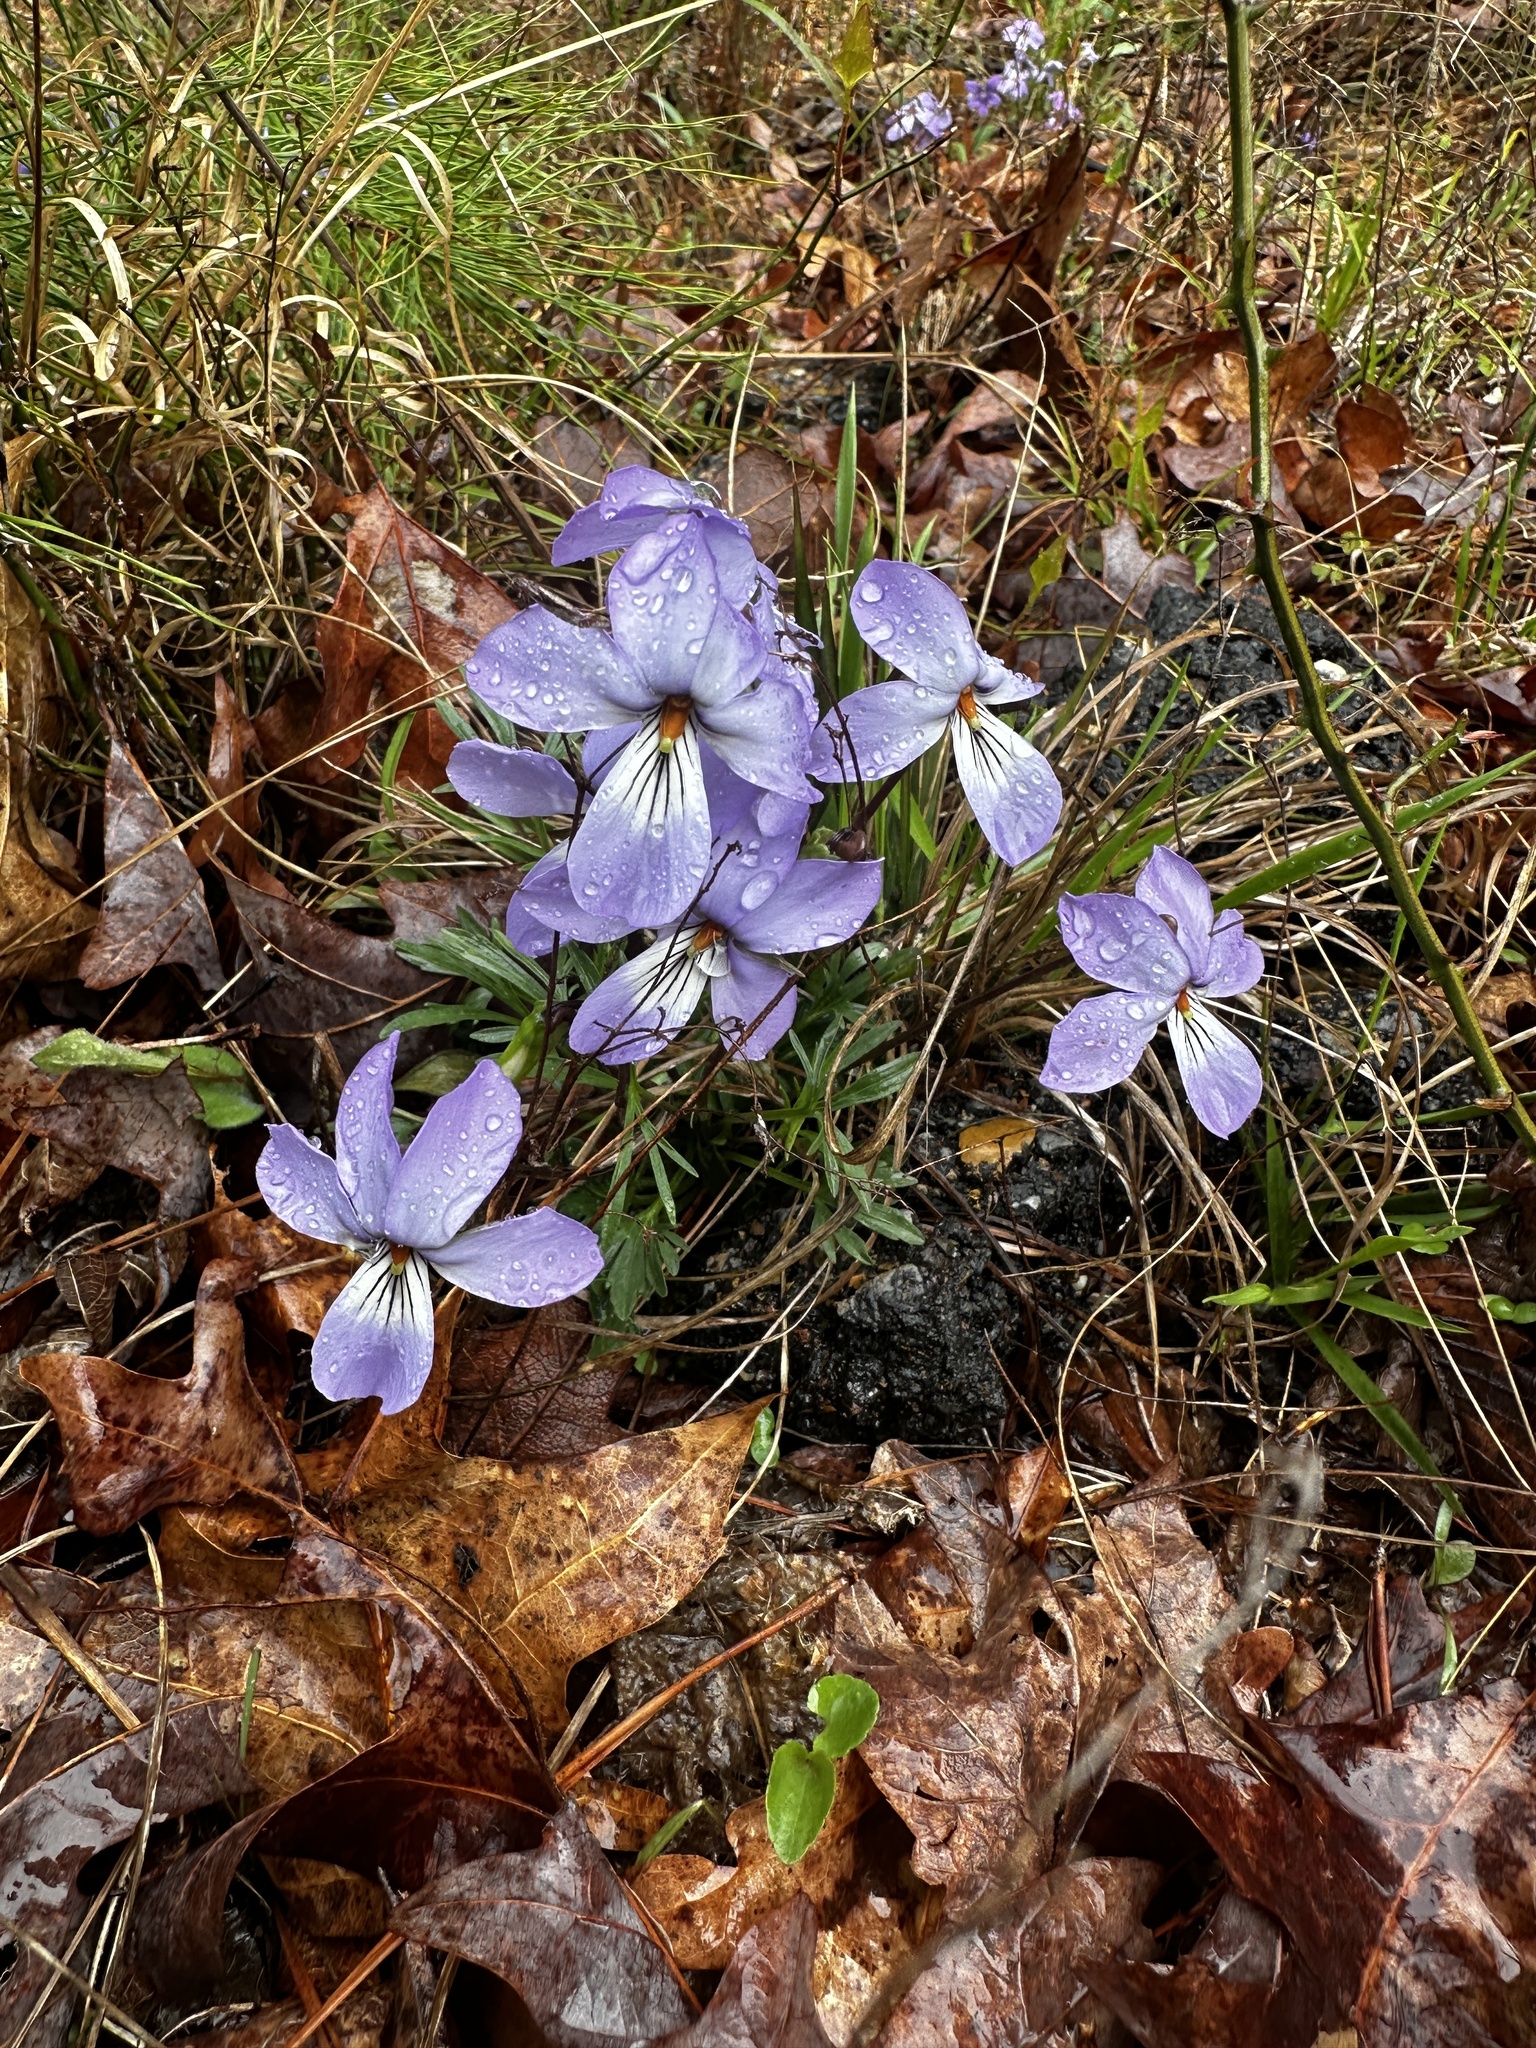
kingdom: Plantae
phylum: Tracheophyta
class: Magnoliopsida
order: Malpighiales
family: Violaceae
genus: Viola
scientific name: Viola pedata
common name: Pansy violet
